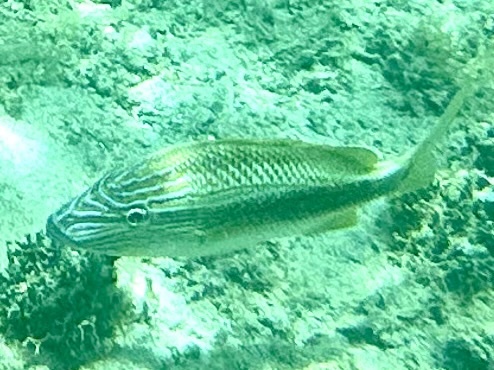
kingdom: Animalia
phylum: Chordata
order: Perciformes
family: Haemulidae
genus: Haemulon
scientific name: Haemulon plumierii
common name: White grunt
